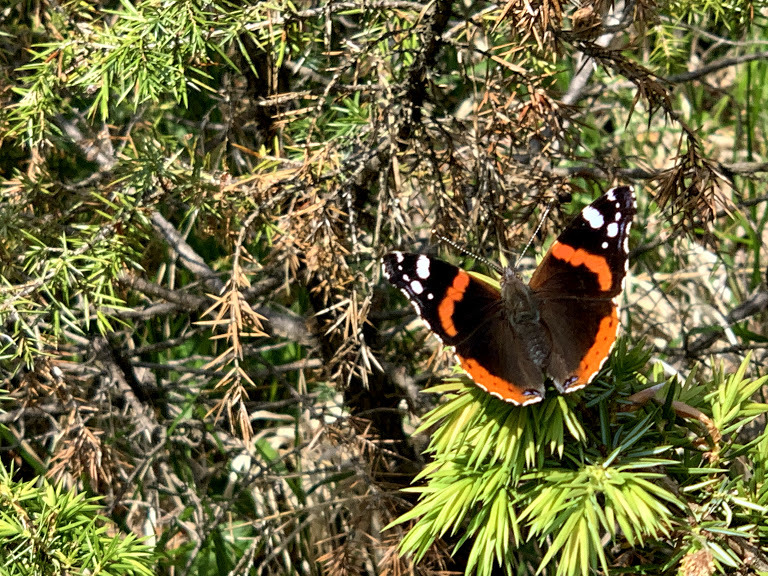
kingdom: Animalia
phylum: Arthropoda
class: Insecta
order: Lepidoptera
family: Nymphalidae
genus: Vanessa
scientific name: Vanessa atalanta
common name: Red admiral
